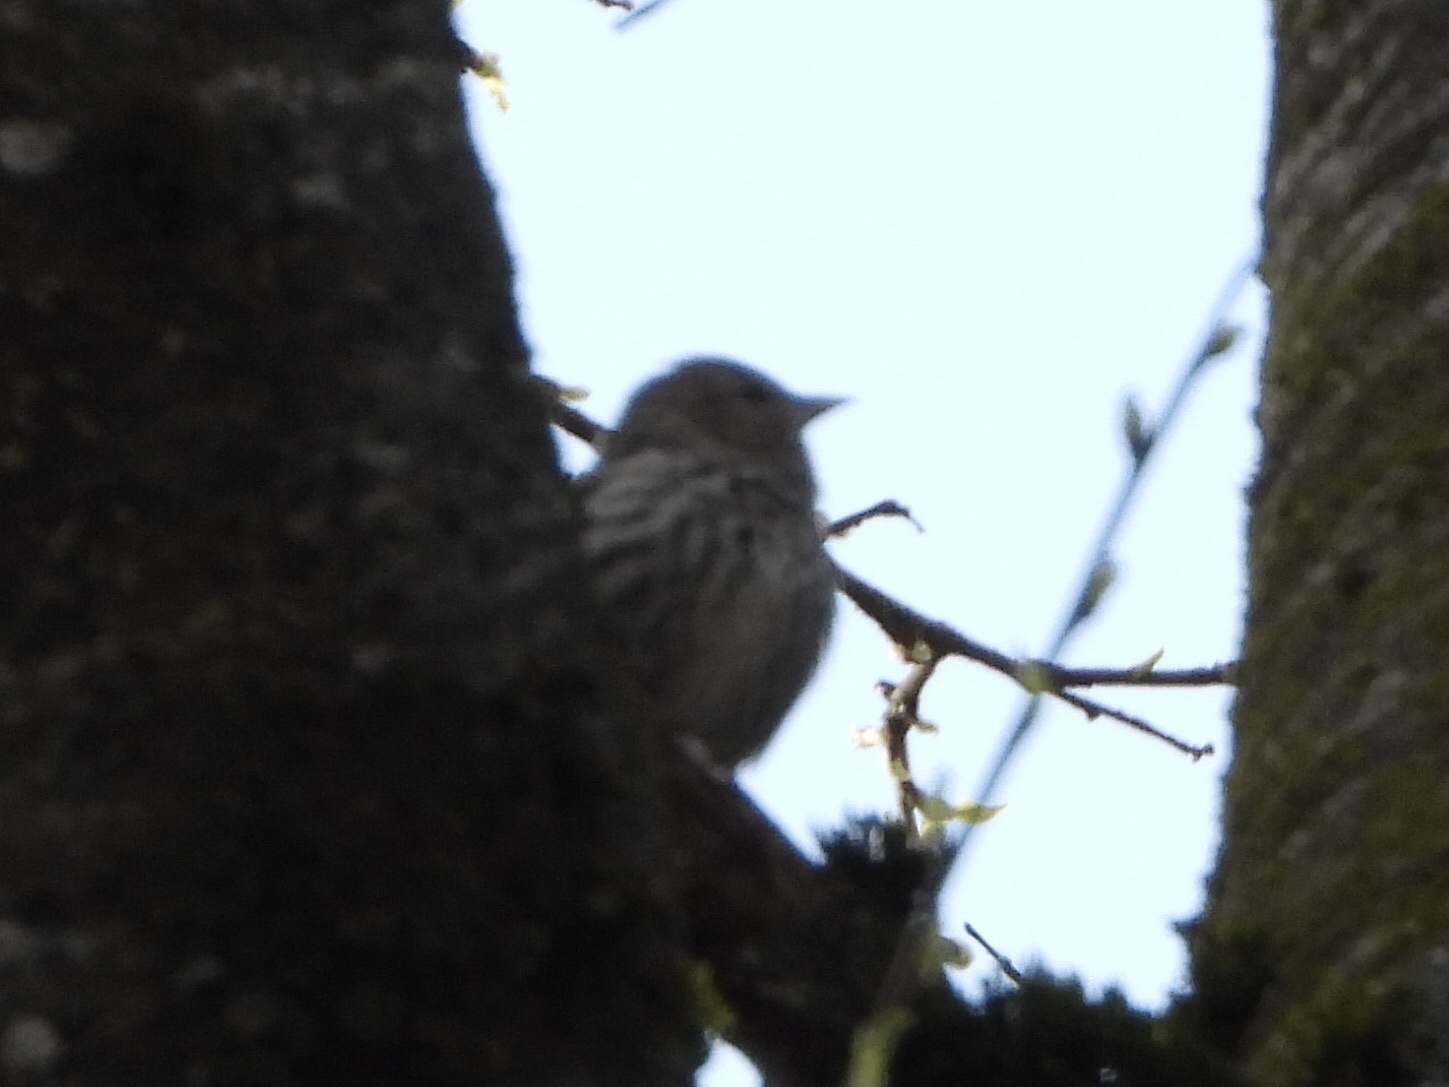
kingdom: Animalia
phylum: Chordata
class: Aves
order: Passeriformes
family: Fringillidae
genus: Spinus
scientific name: Spinus pinus
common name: Pine siskin
